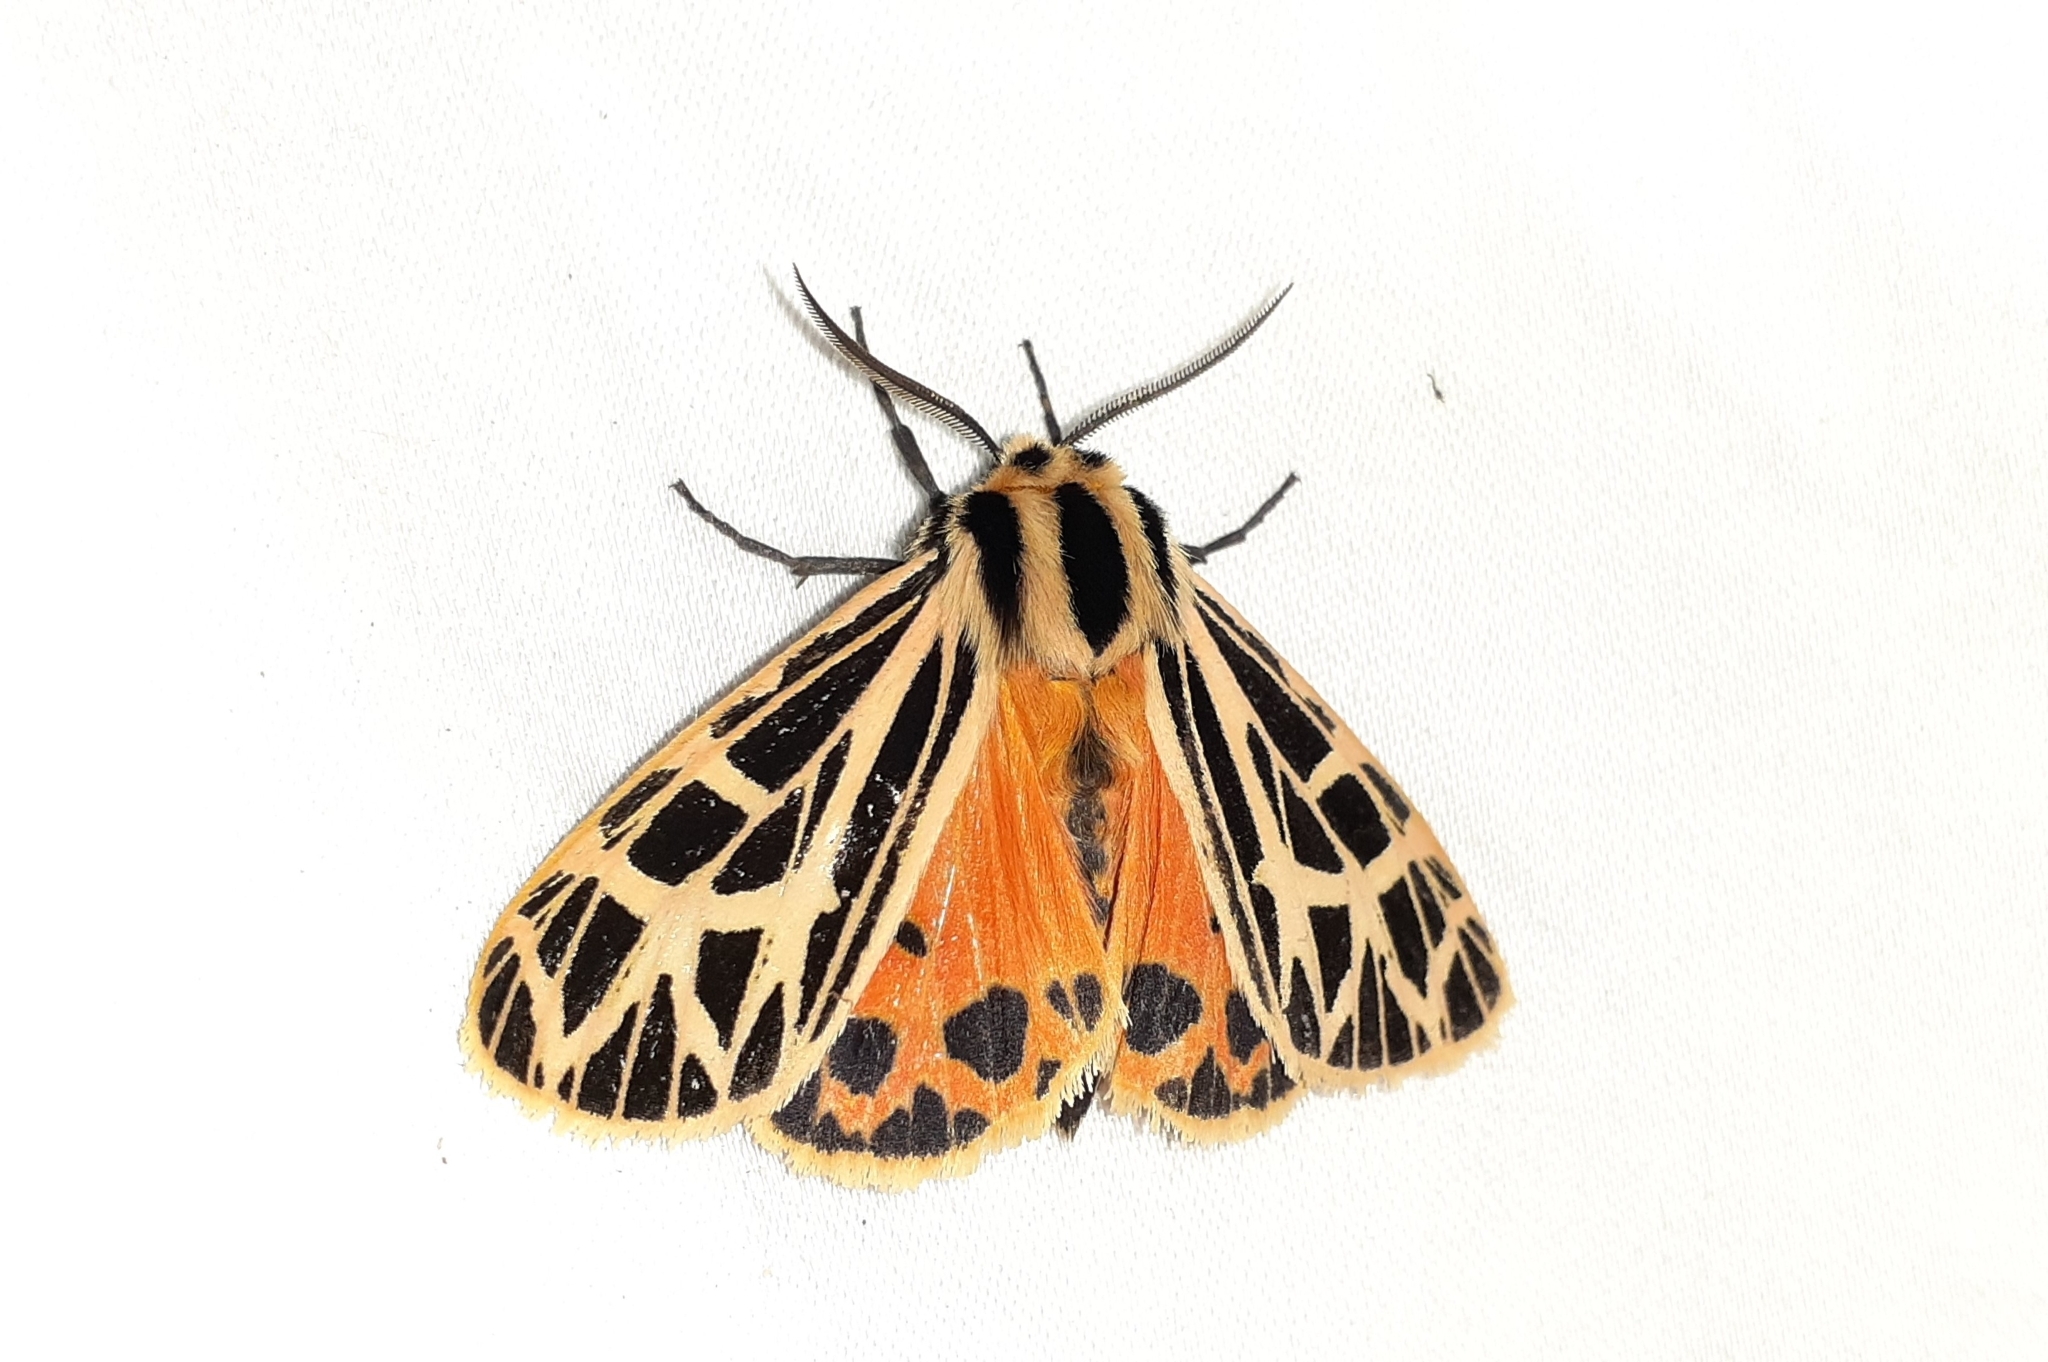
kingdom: Animalia
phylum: Arthropoda
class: Insecta
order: Lepidoptera
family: Erebidae
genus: Grammia
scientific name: Grammia parthenice
